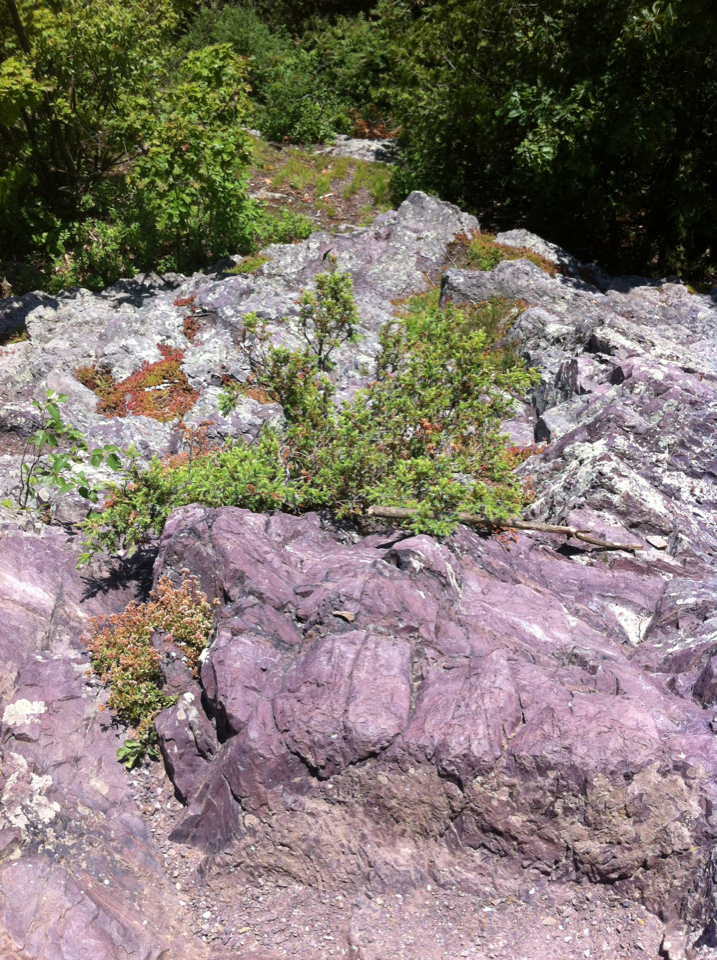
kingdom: Plantae
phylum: Tracheophyta
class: Pinopsida
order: Pinales
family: Cupressaceae
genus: Juniperus
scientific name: Juniperus communis
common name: Common juniper
